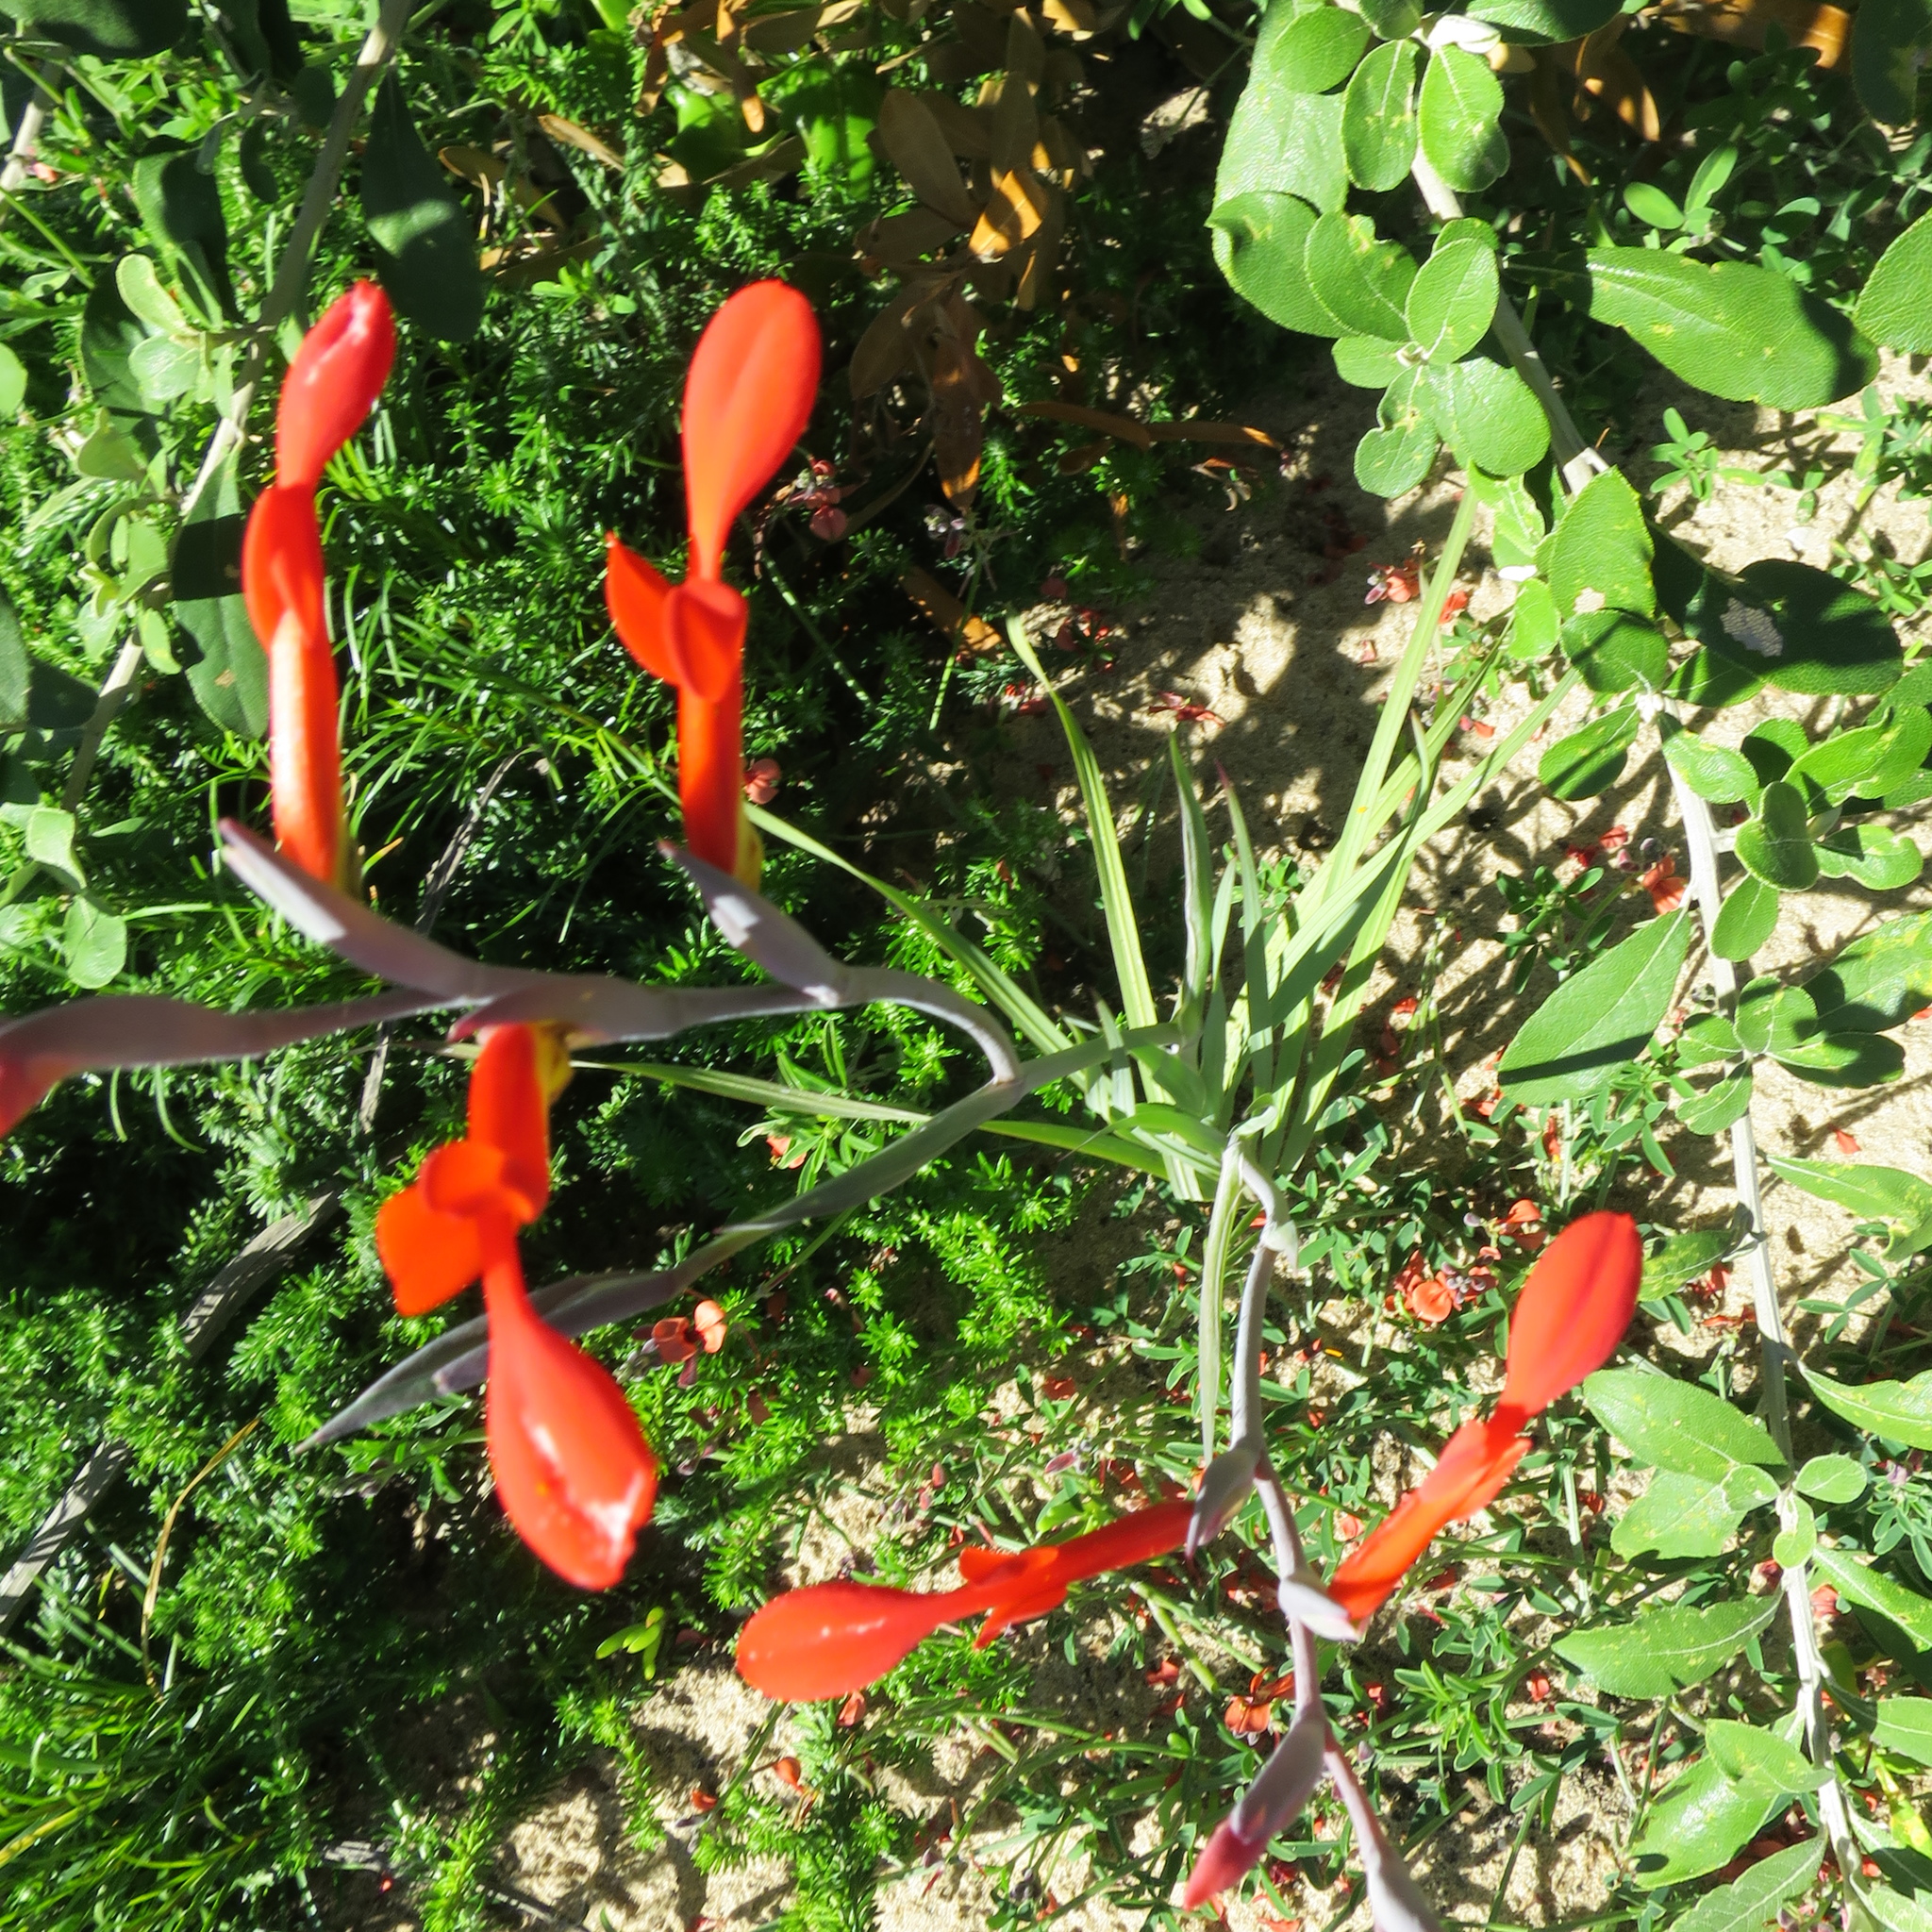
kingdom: Plantae
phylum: Tracheophyta
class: Liliopsida
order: Asparagales
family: Iridaceae
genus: Gladiolus
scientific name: Gladiolus cunonius
